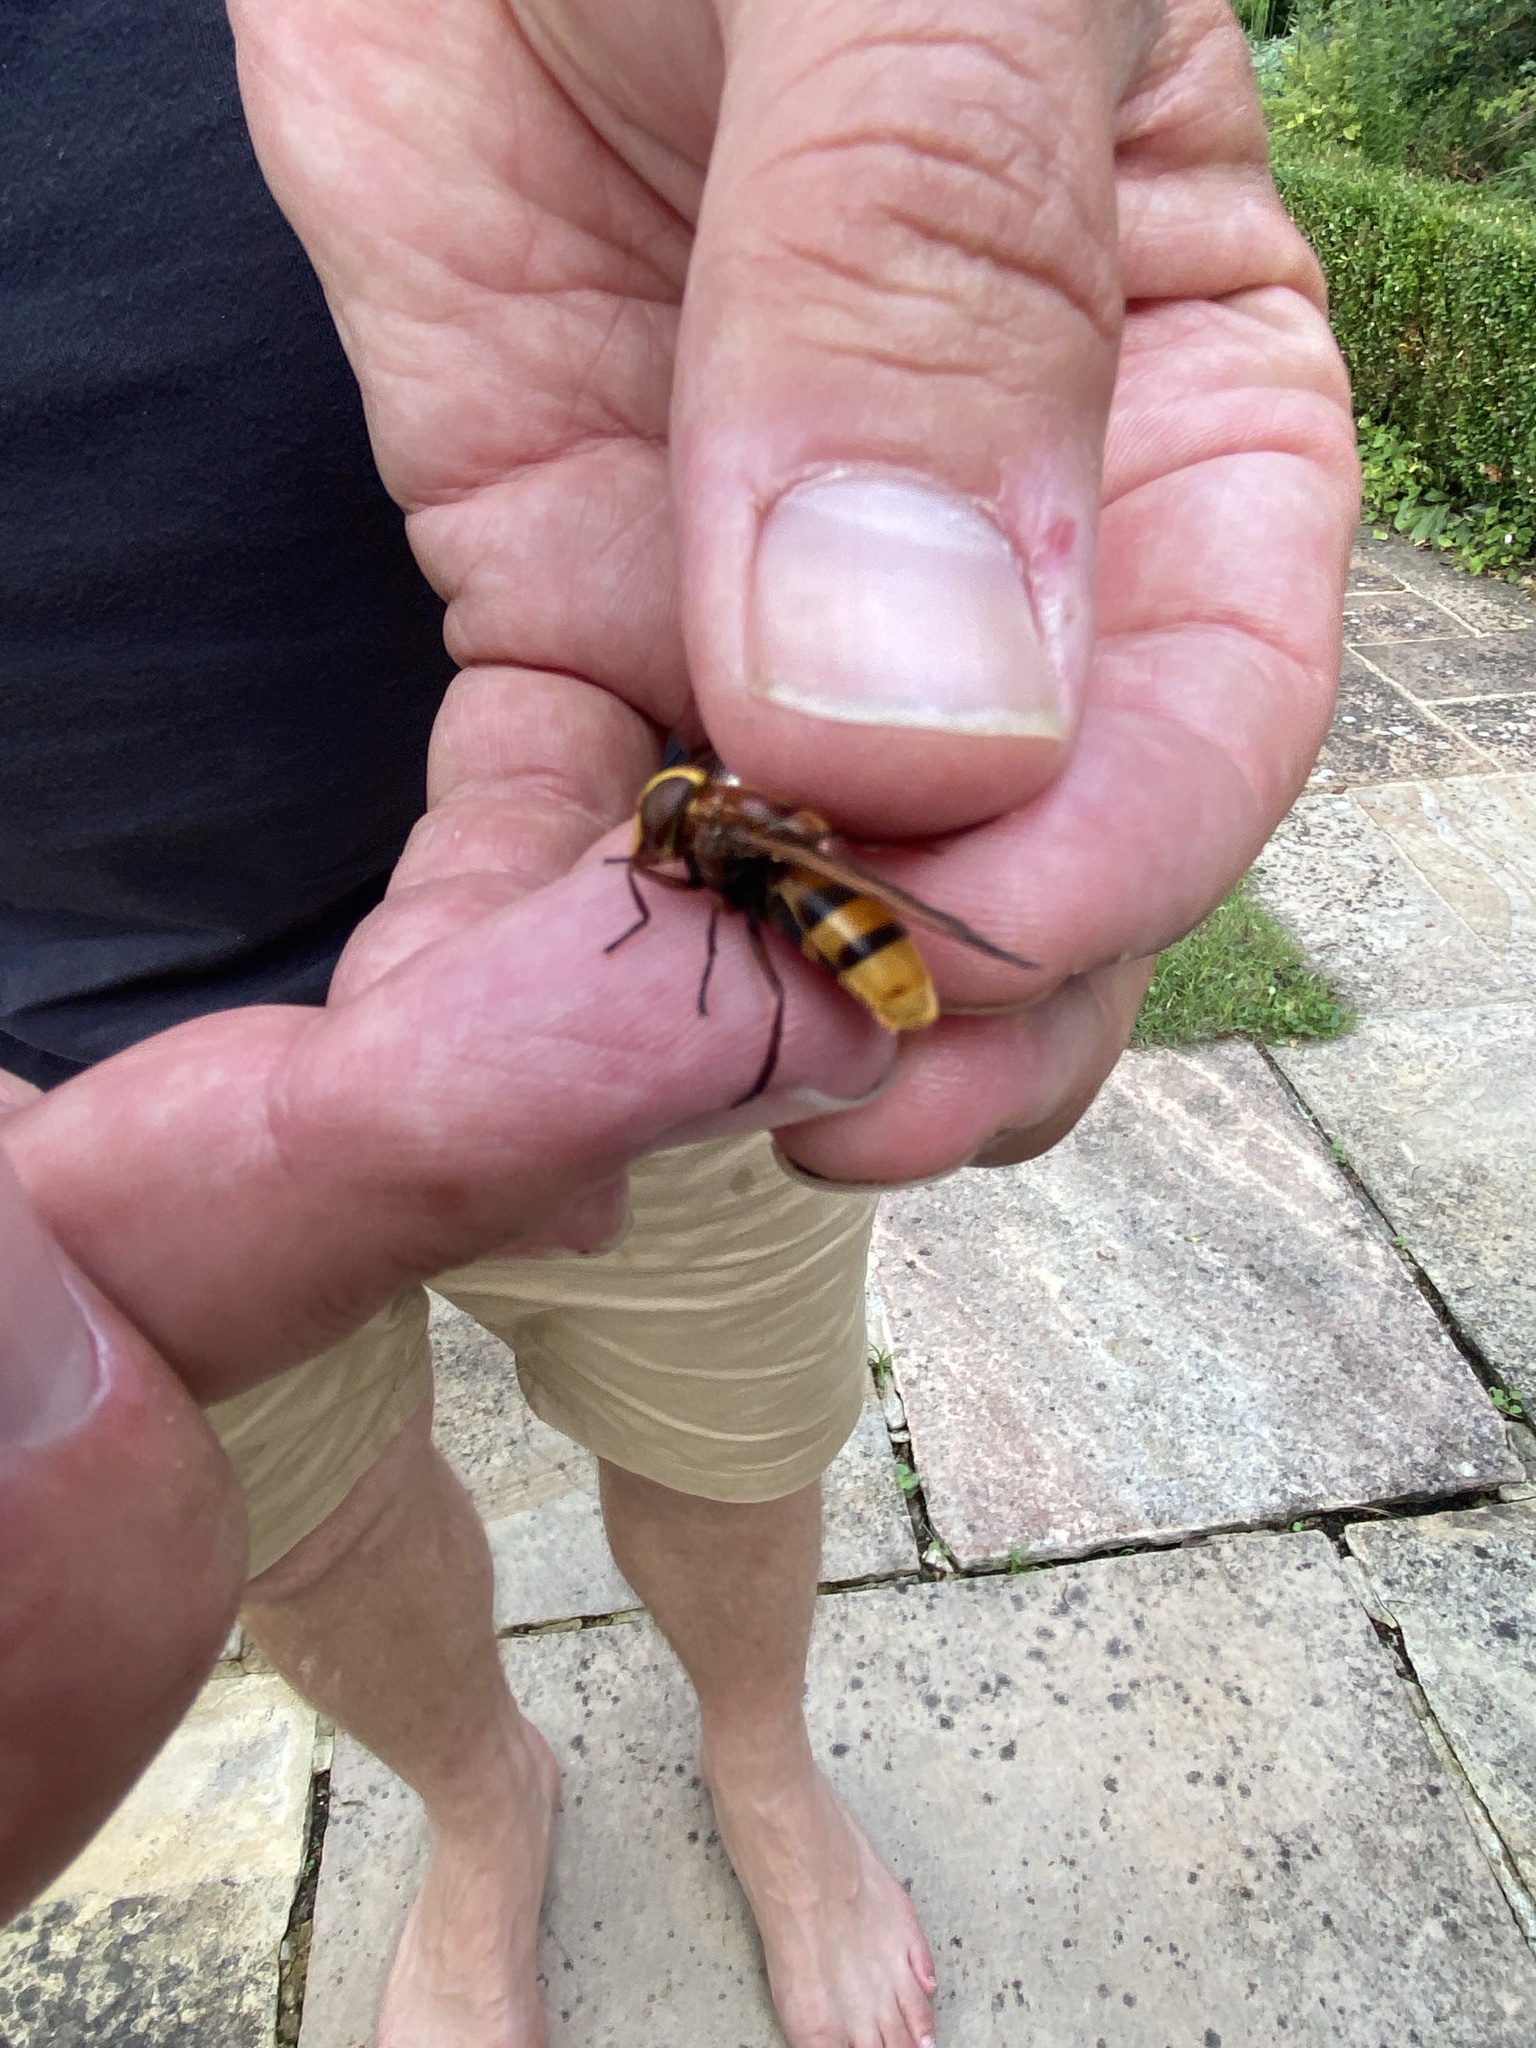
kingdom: Animalia
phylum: Arthropoda
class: Insecta
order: Diptera
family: Syrphidae
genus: Volucella
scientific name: Volucella zonaria
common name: Hornet hoverfly
